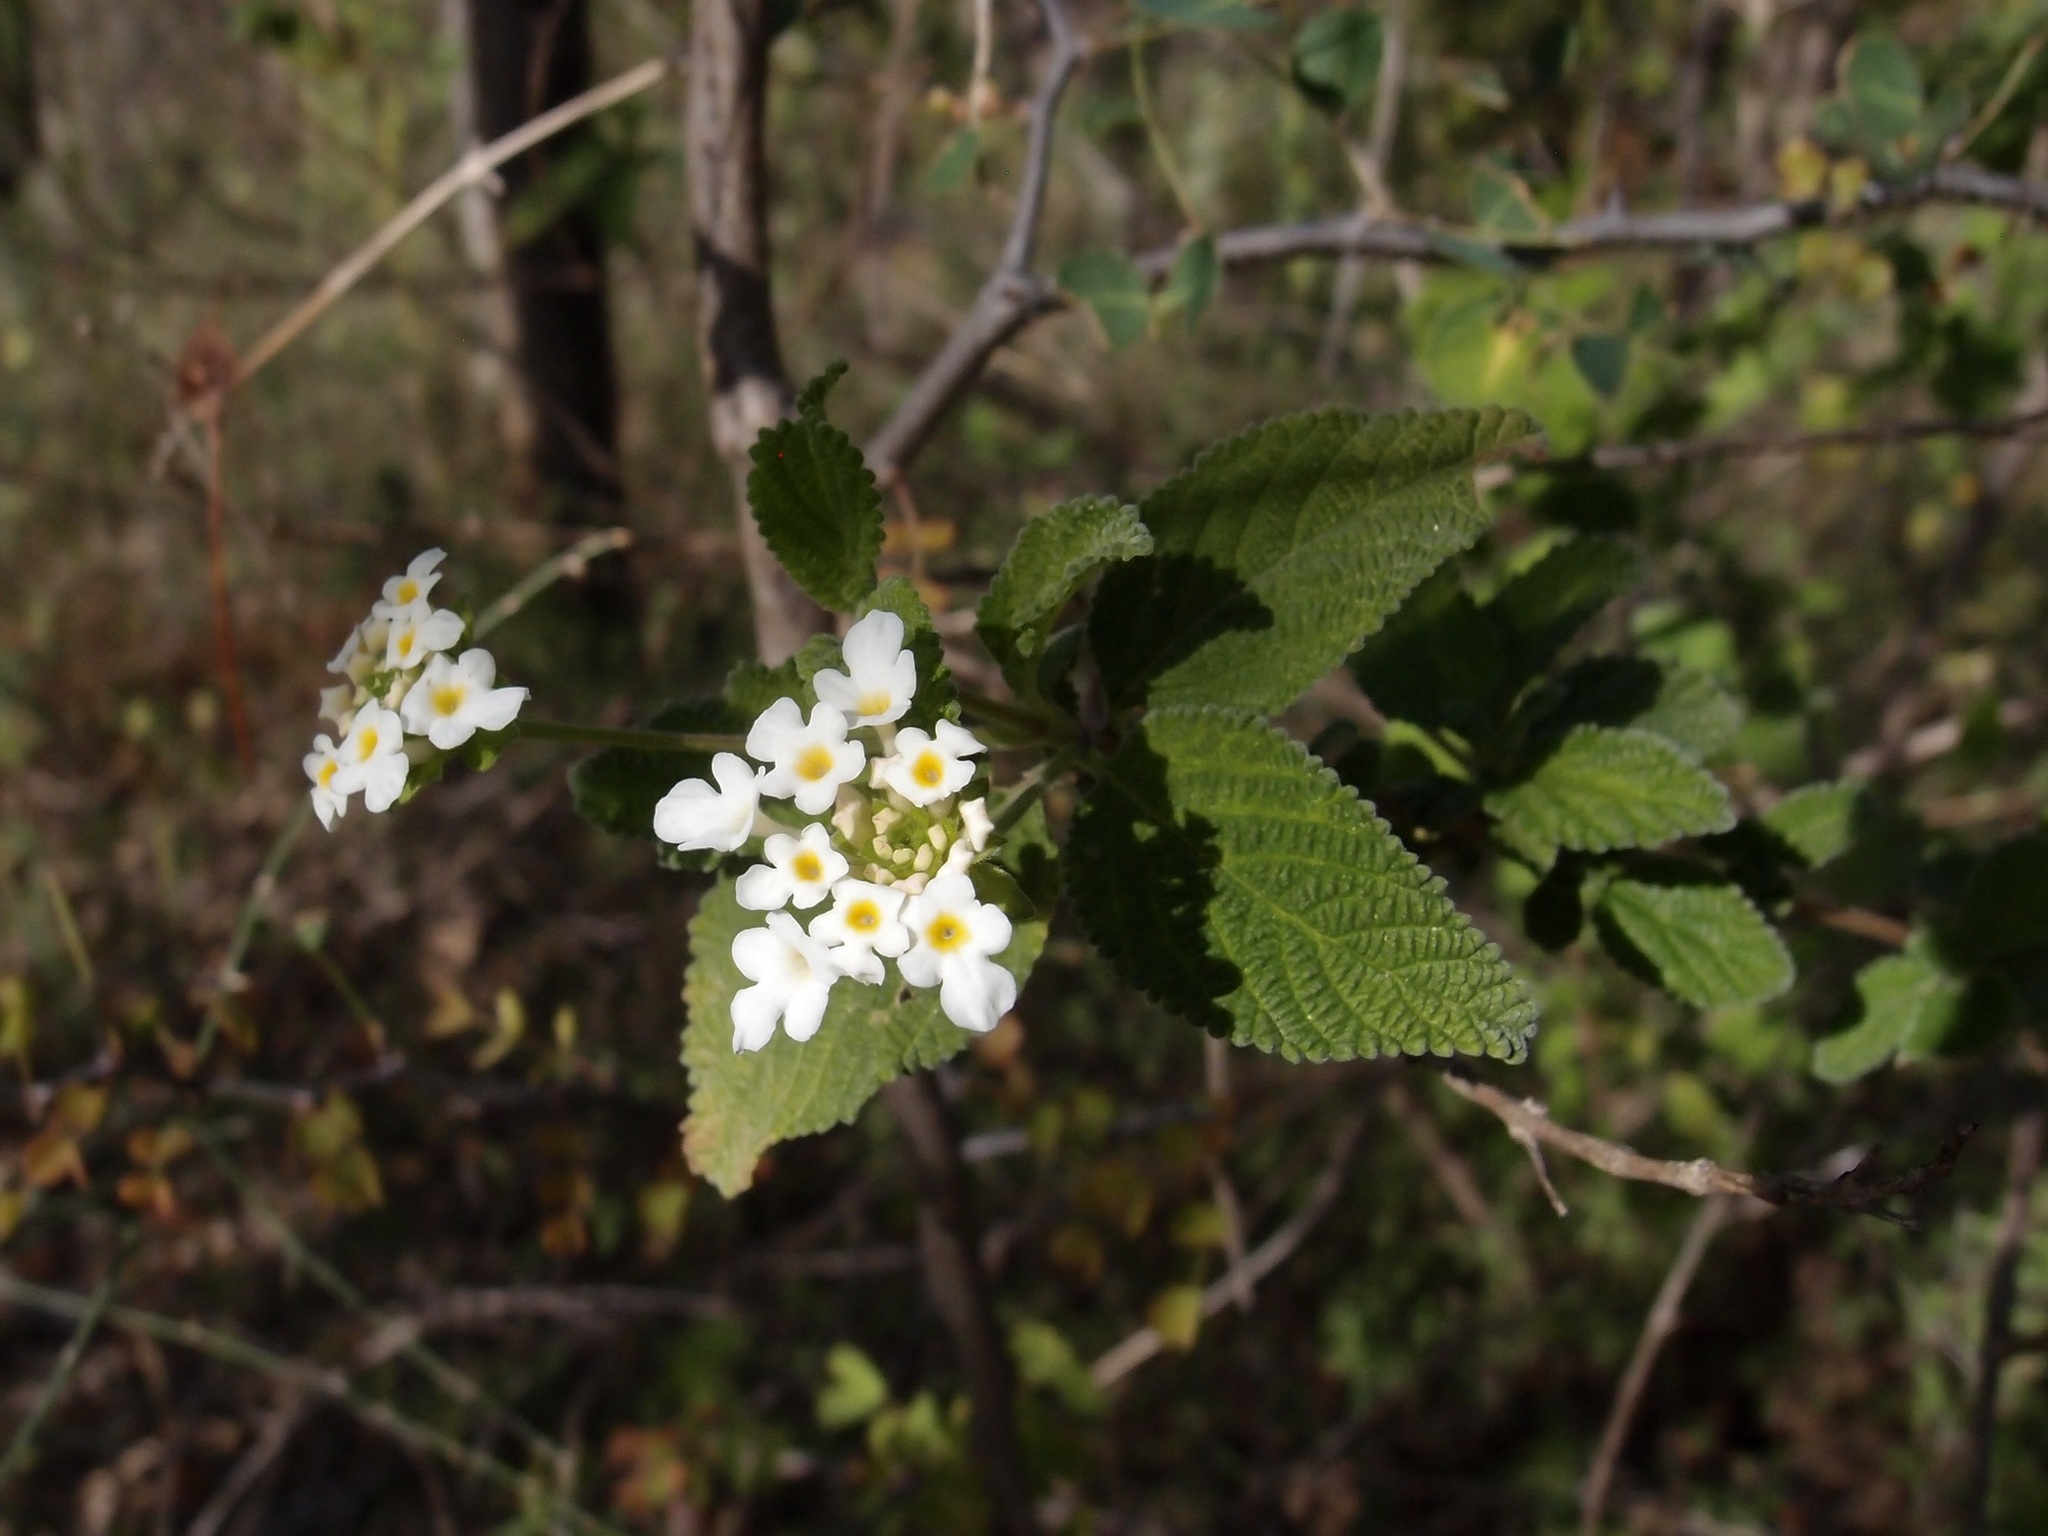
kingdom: Plantae
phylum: Tracheophyta
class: Magnoliopsida
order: Lamiales
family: Verbenaceae
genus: Lantana
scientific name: Lantana velutina
